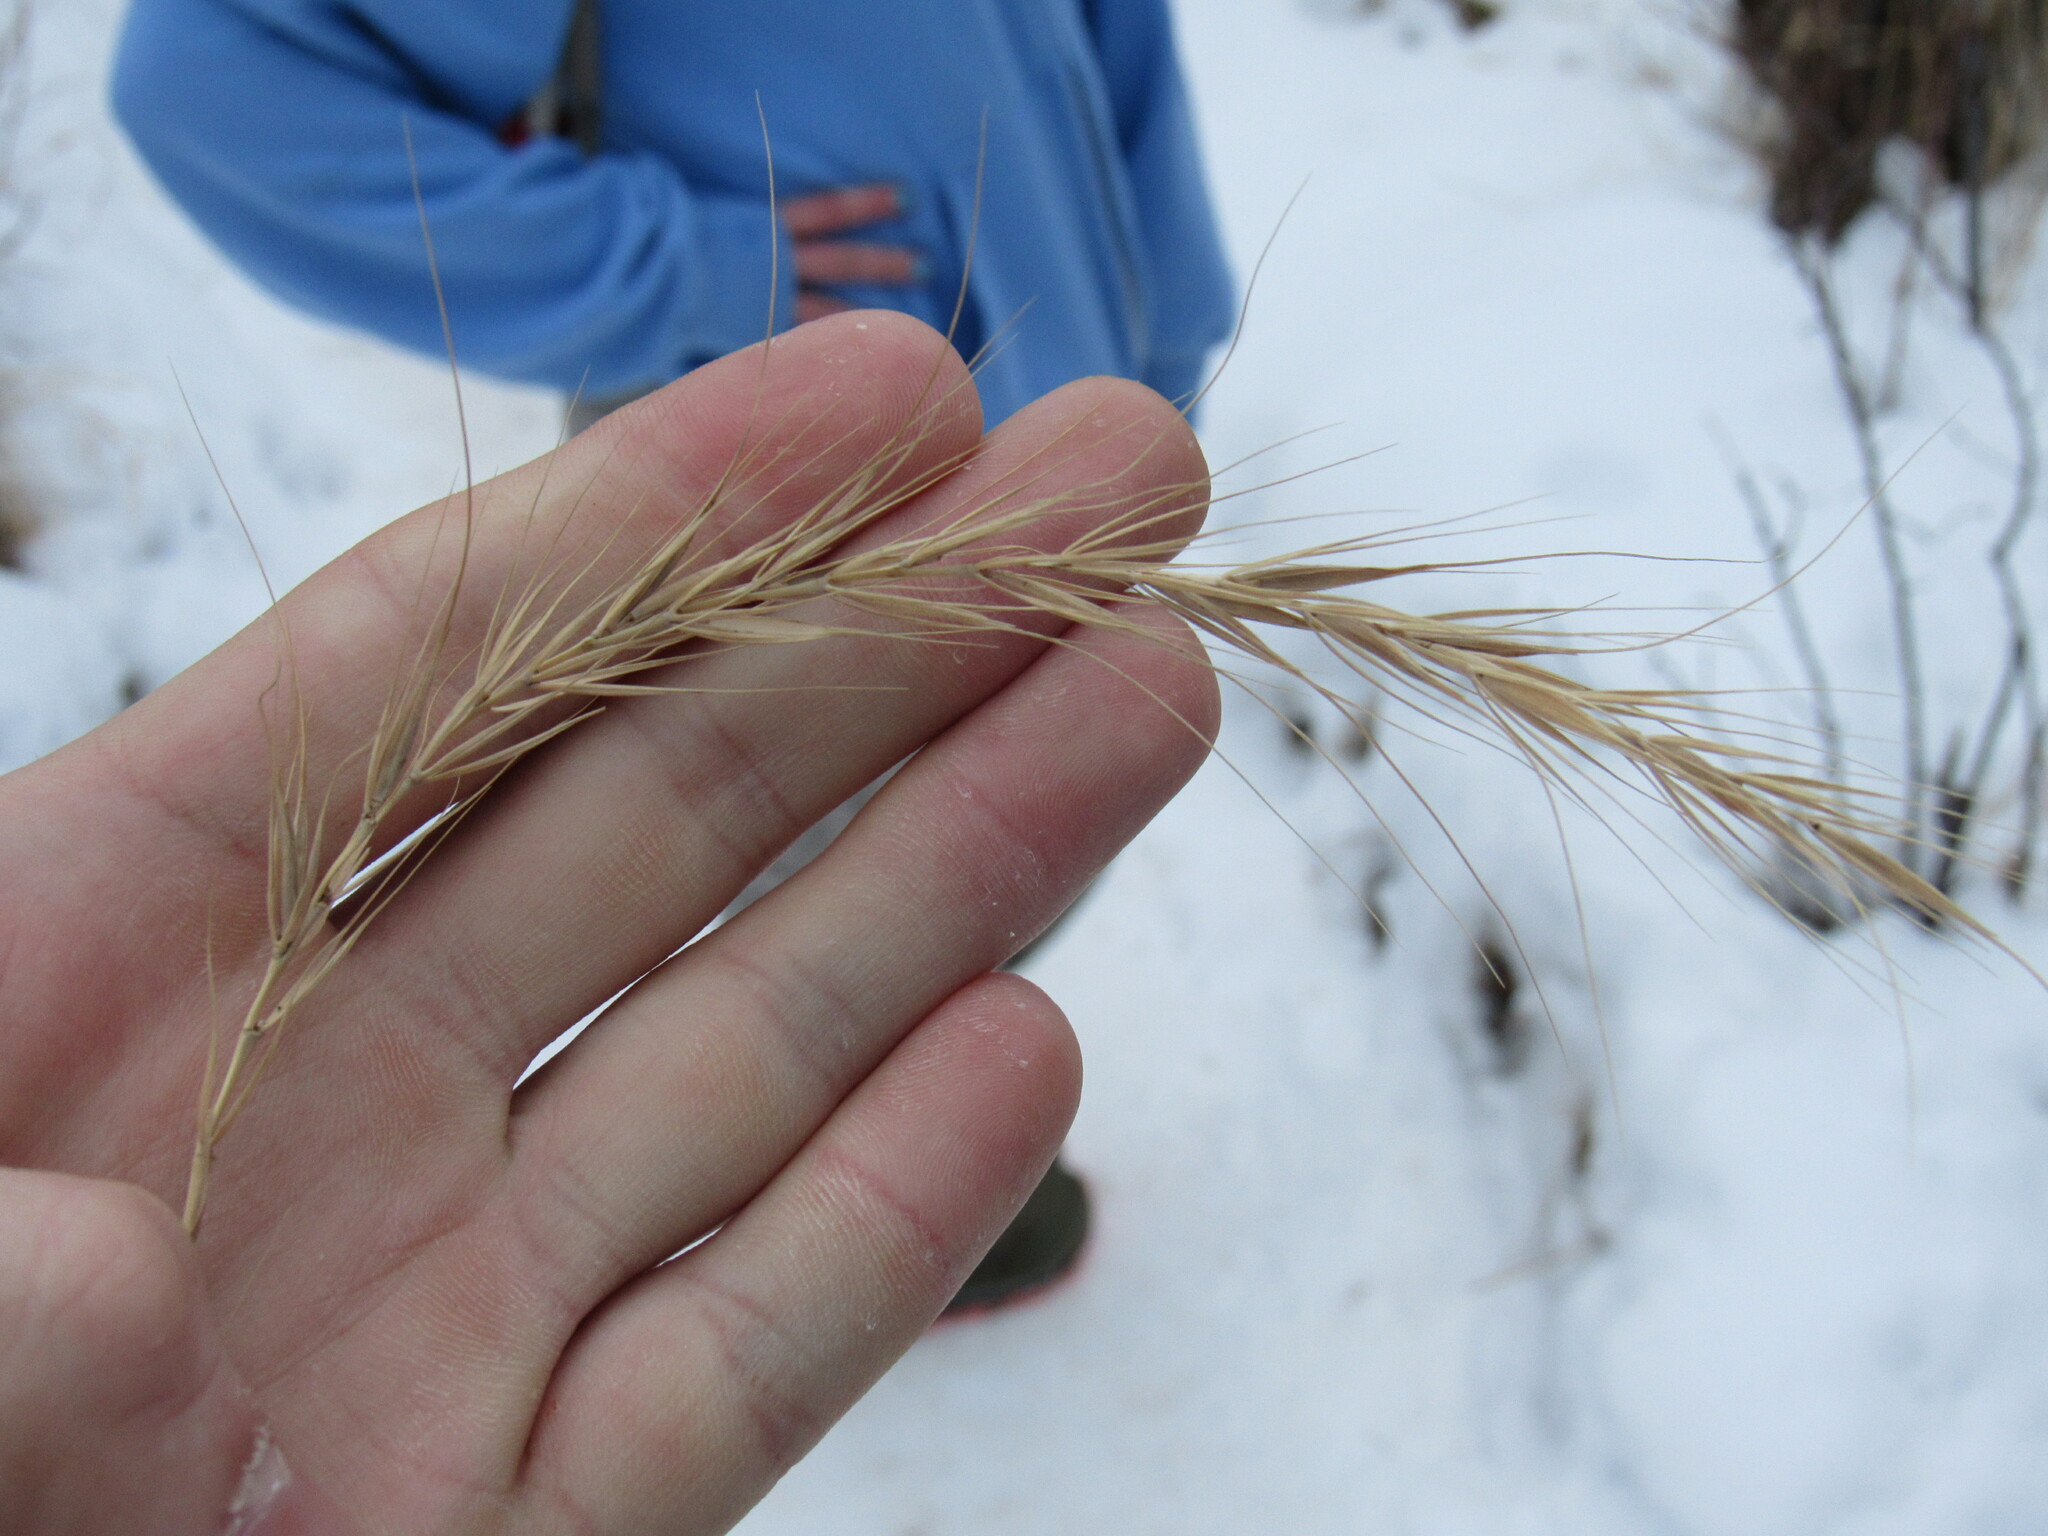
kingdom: Plantae
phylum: Tracheophyta
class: Liliopsida
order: Poales
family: Poaceae
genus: Elymus
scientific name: Elymus canadensis
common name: Canada wild rye
